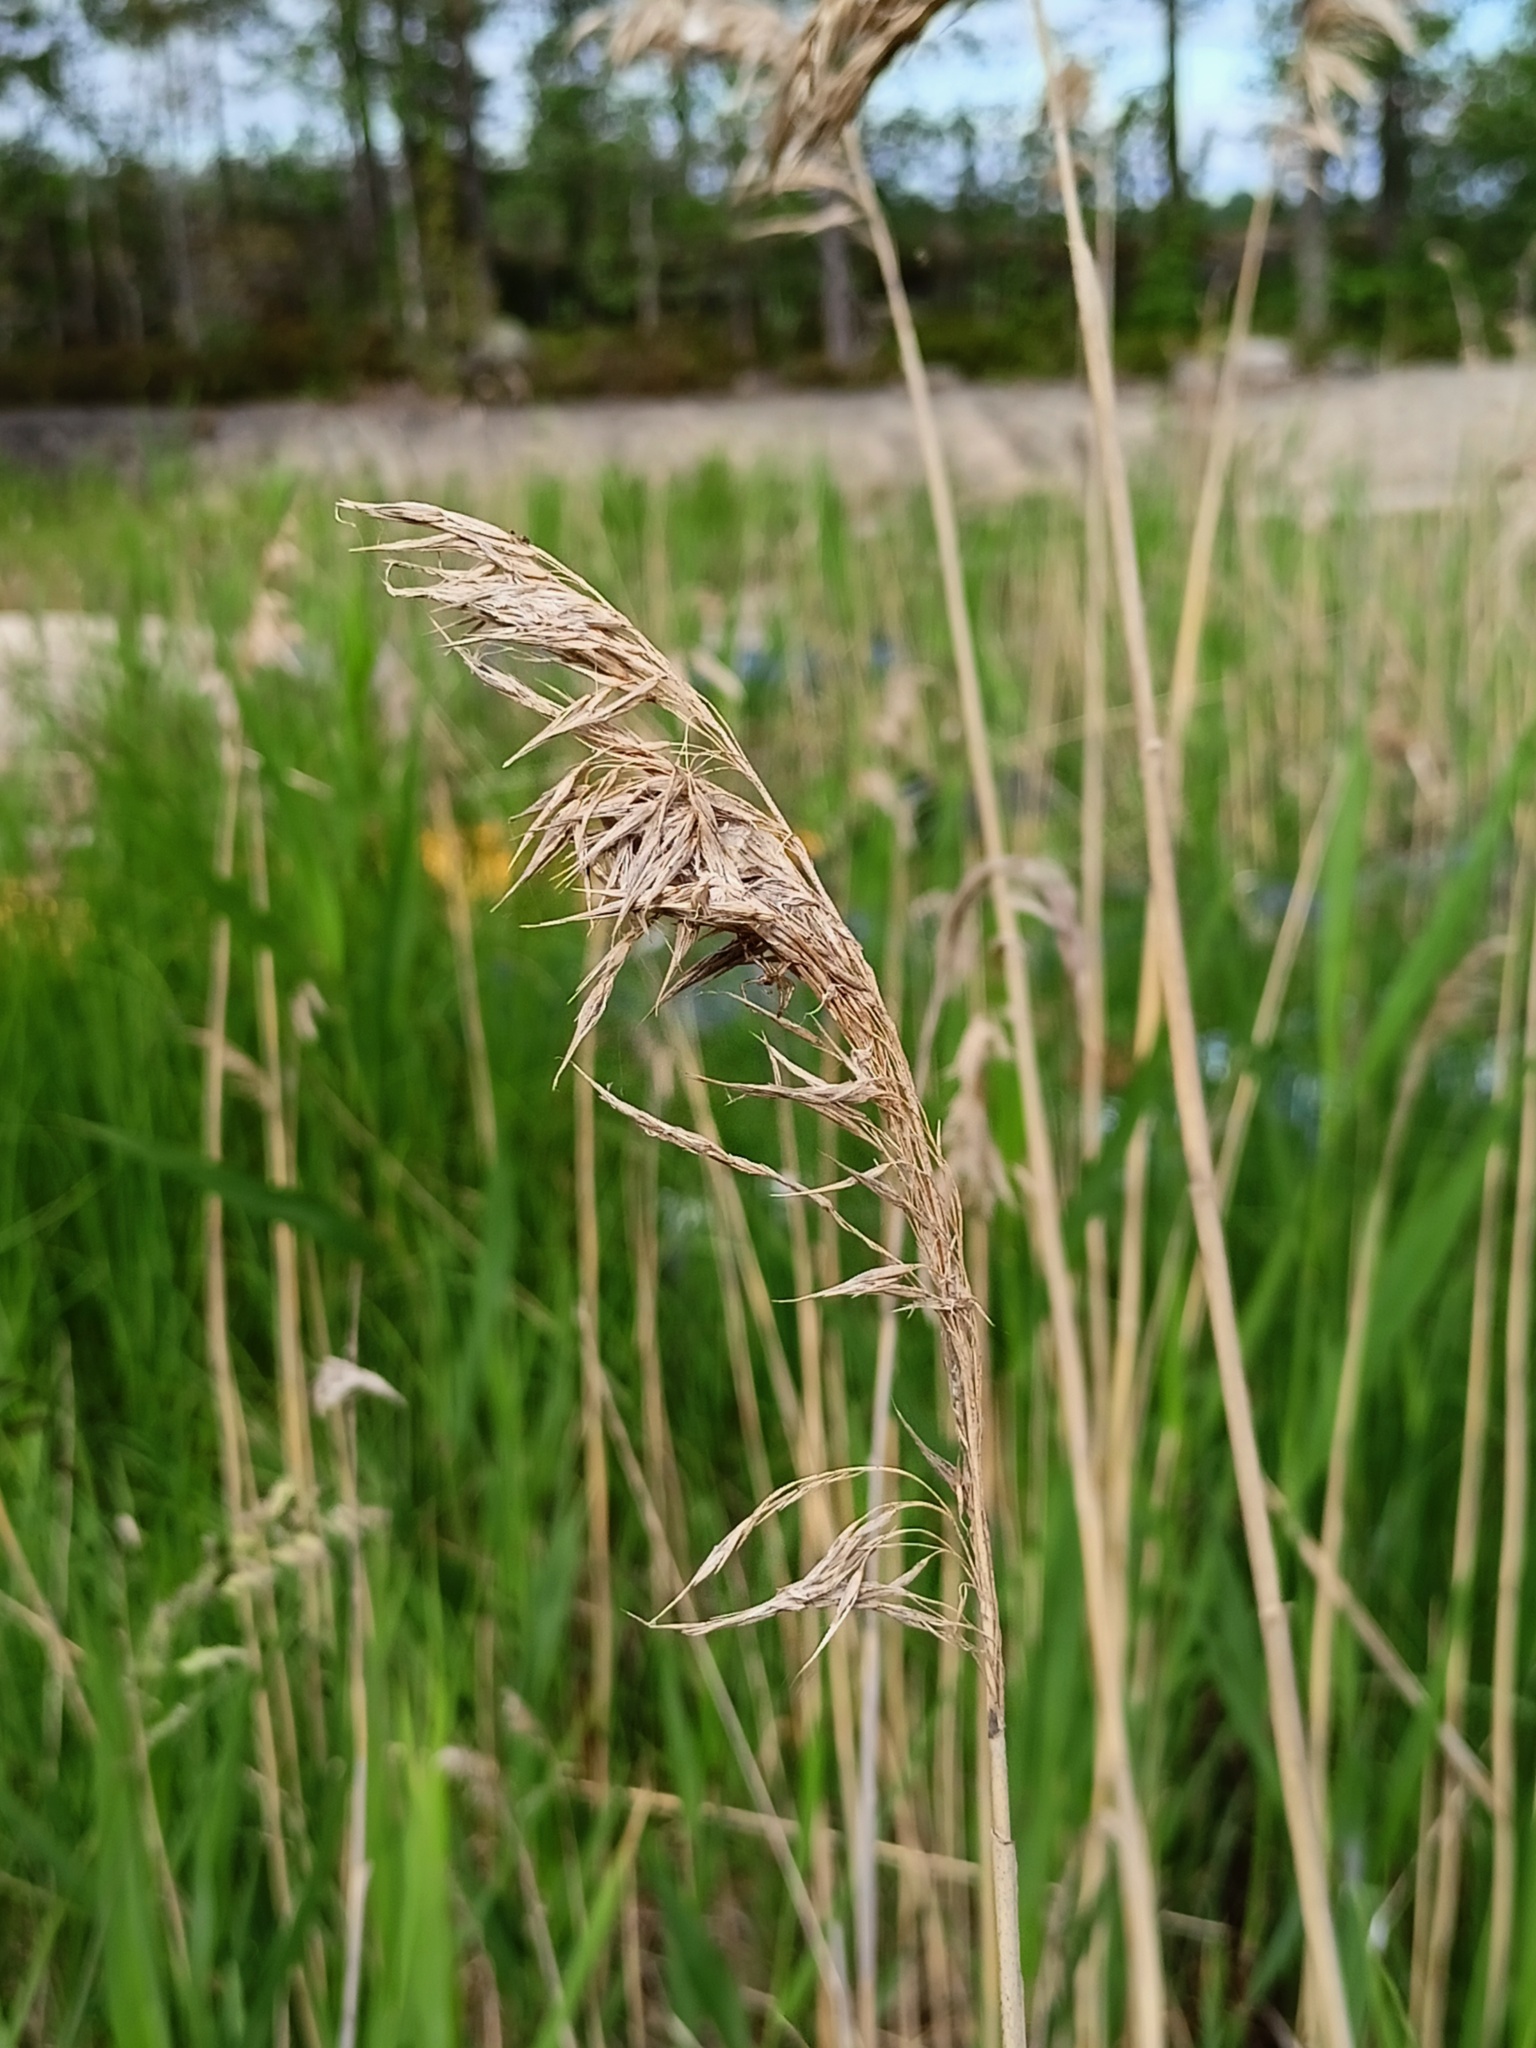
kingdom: Plantae
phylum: Tracheophyta
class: Liliopsida
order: Poales
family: Poaceae
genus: Phragmites
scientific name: Phragmites australis
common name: Common reed
